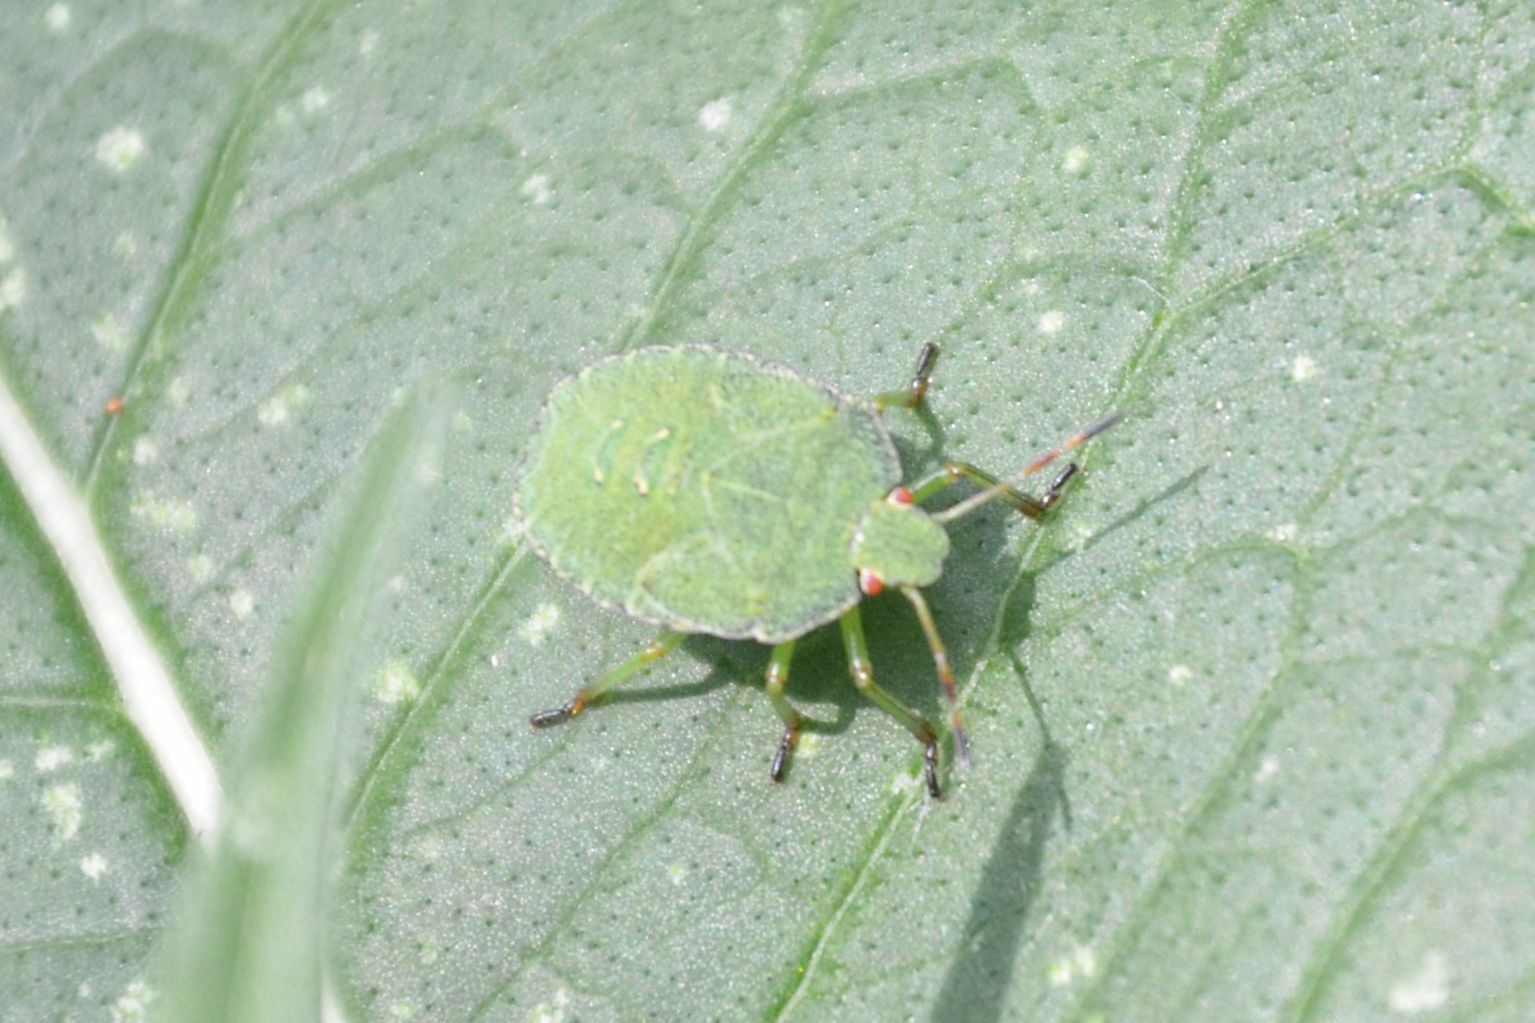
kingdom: Animalia
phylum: Arthropoda
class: Insecta
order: Hemiptera
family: Pentatomidae
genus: Palomena
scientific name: Palomena prasina
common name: Green shieldbug
